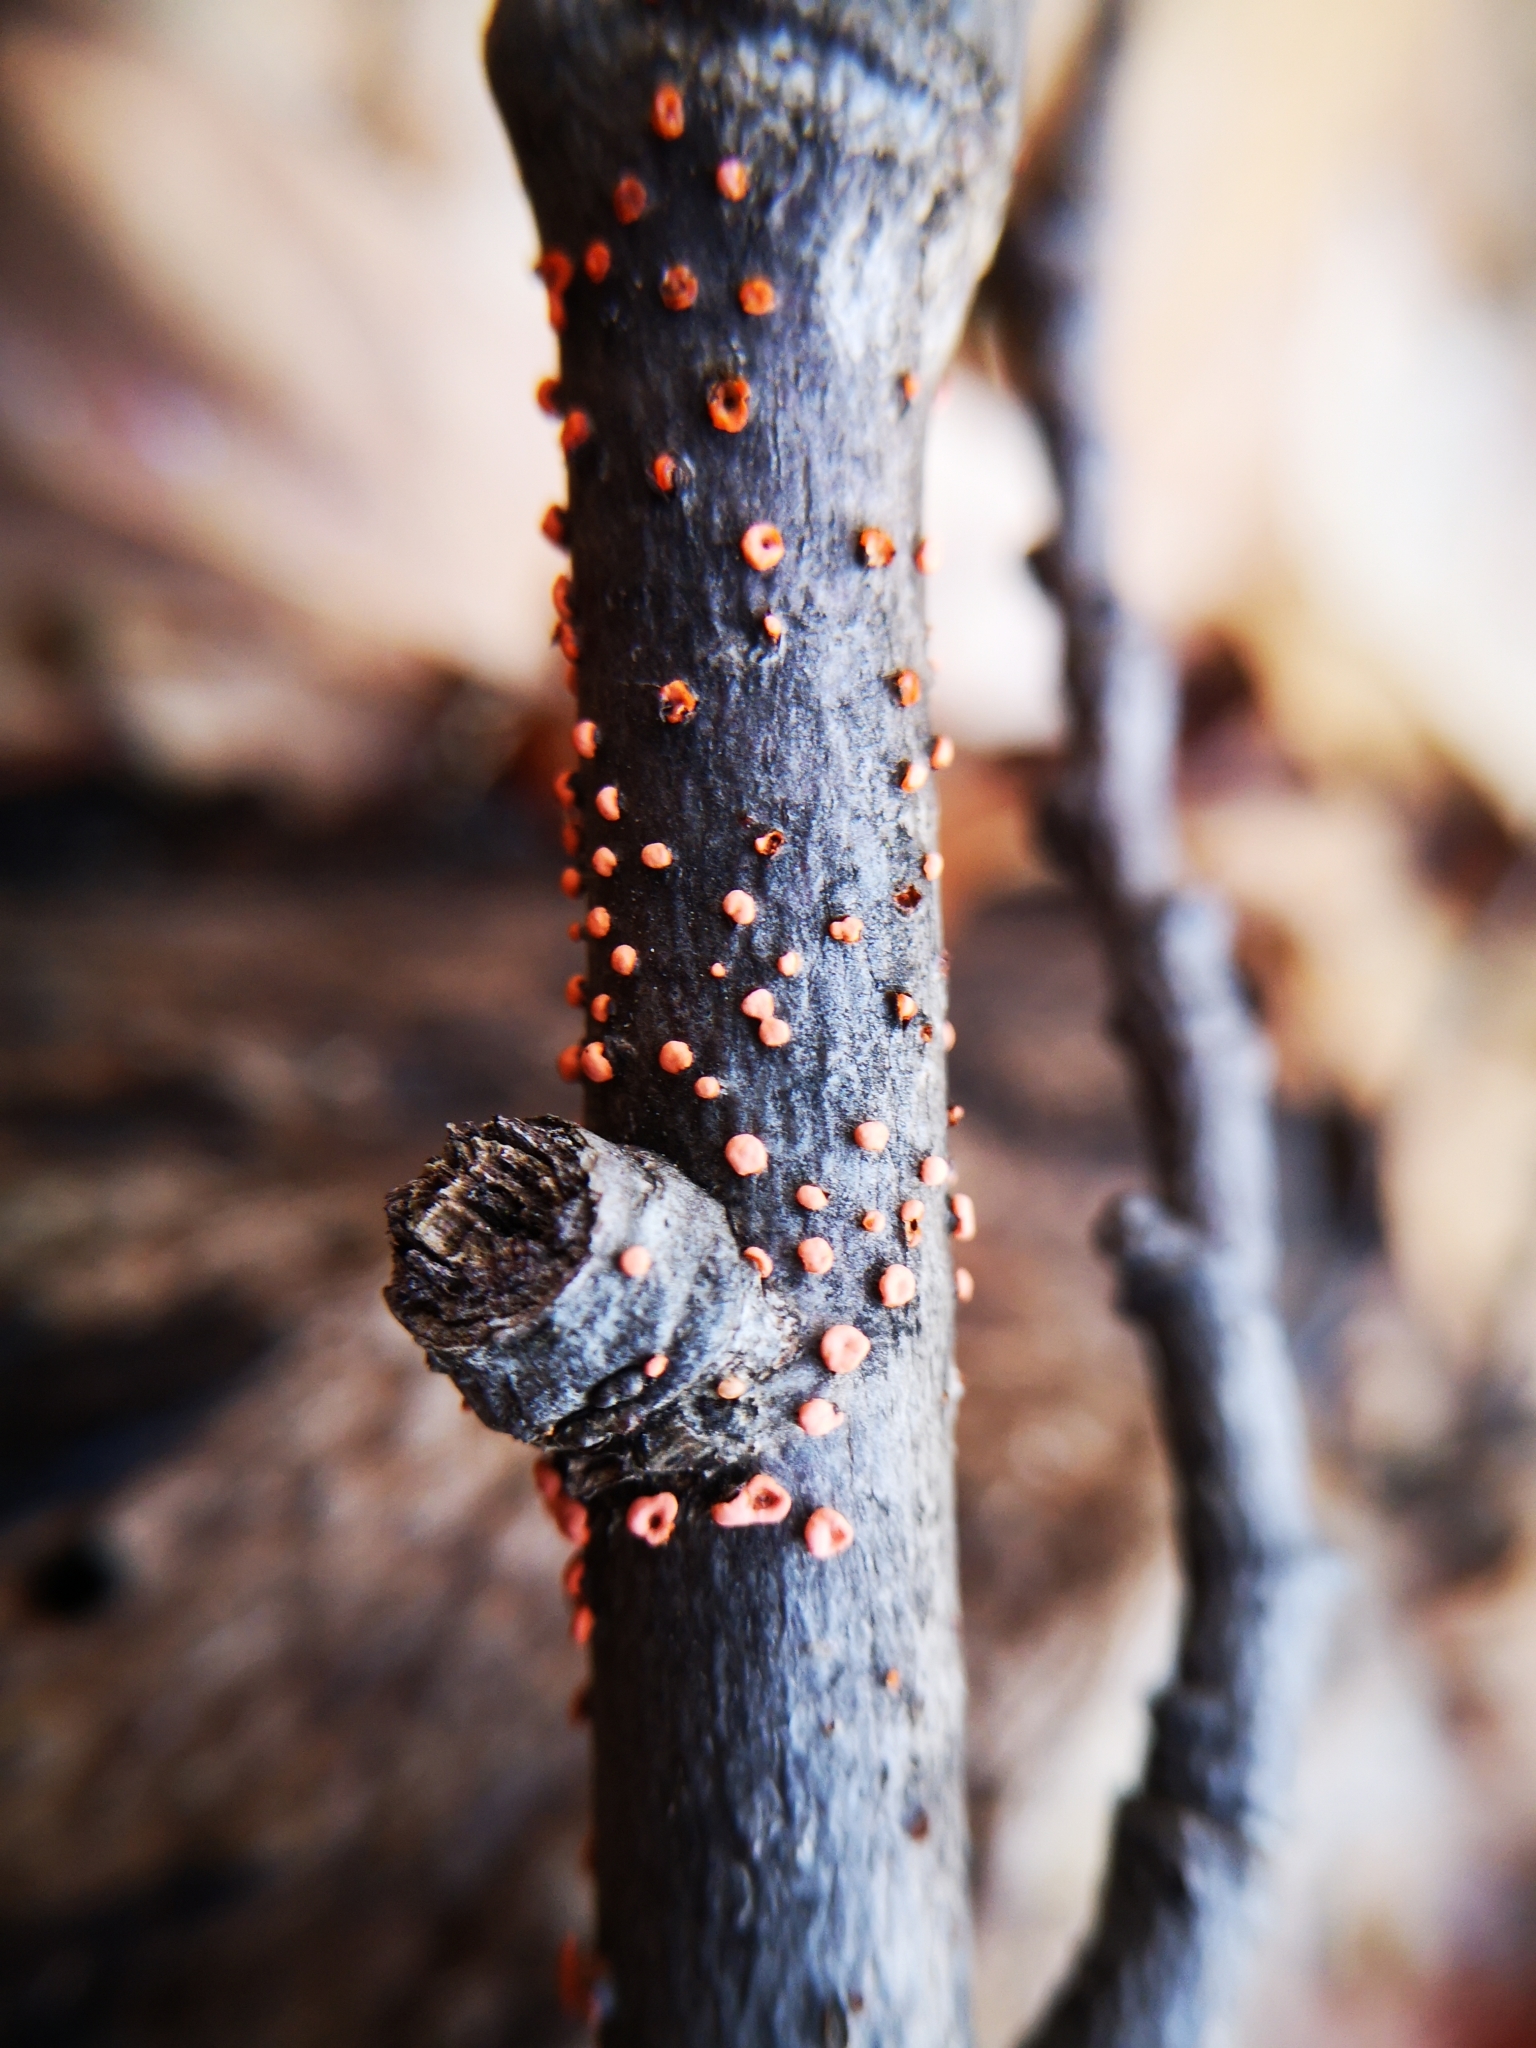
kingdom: Fungi
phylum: Ascomycota
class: Sordariomycetes
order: Hypocreales
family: Nectriaceae
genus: Nectria
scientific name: Nectria cinnabarina
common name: Coral spot
